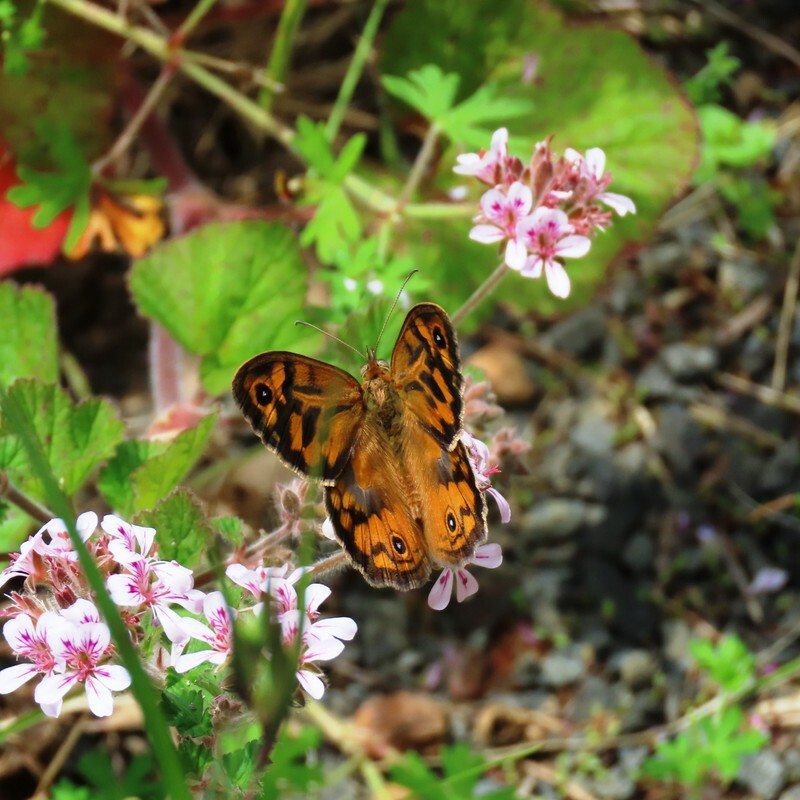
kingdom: Animalia
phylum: Arthropoda
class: Insecta
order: Lepidoptera
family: Nymphalidae
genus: Heteronympha
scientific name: Heteronympha merope
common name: Common brown
